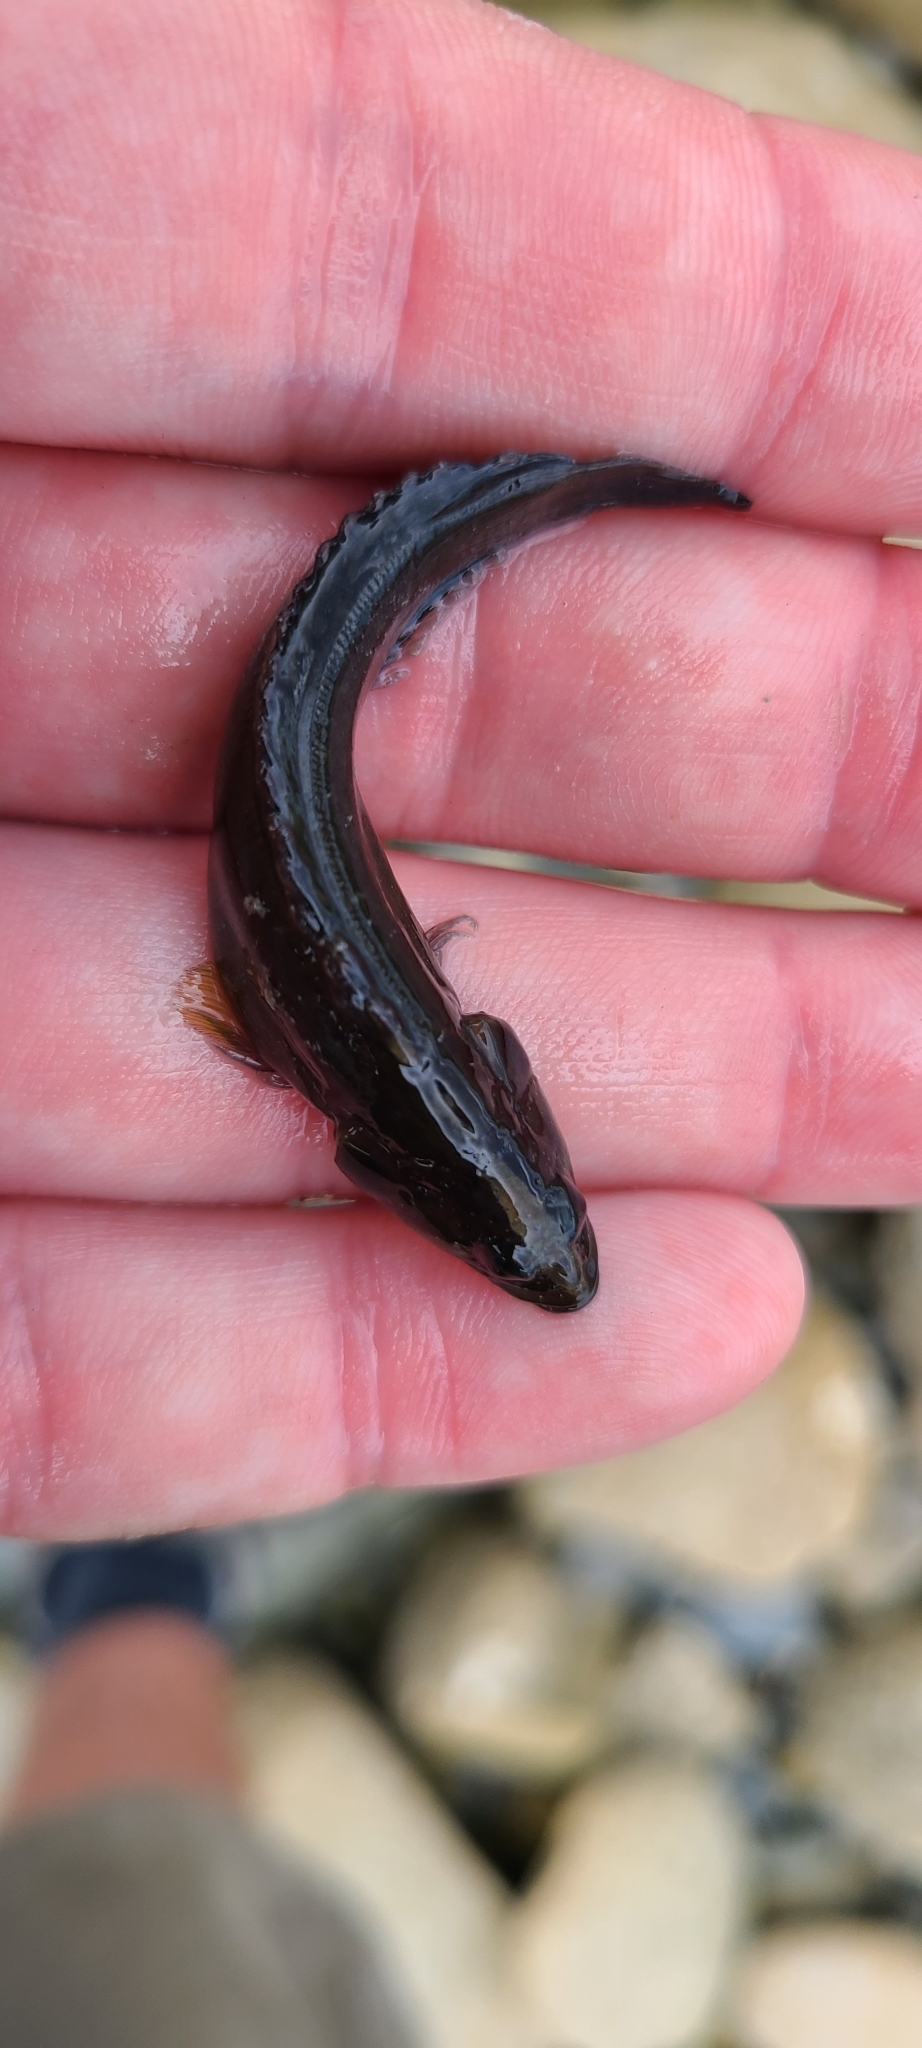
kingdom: Animalia
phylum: Chordata
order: Perciformes
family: Plesiopidae
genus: Acanthoclinus
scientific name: Acanthoclinus fuscus
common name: Olive rockfish
